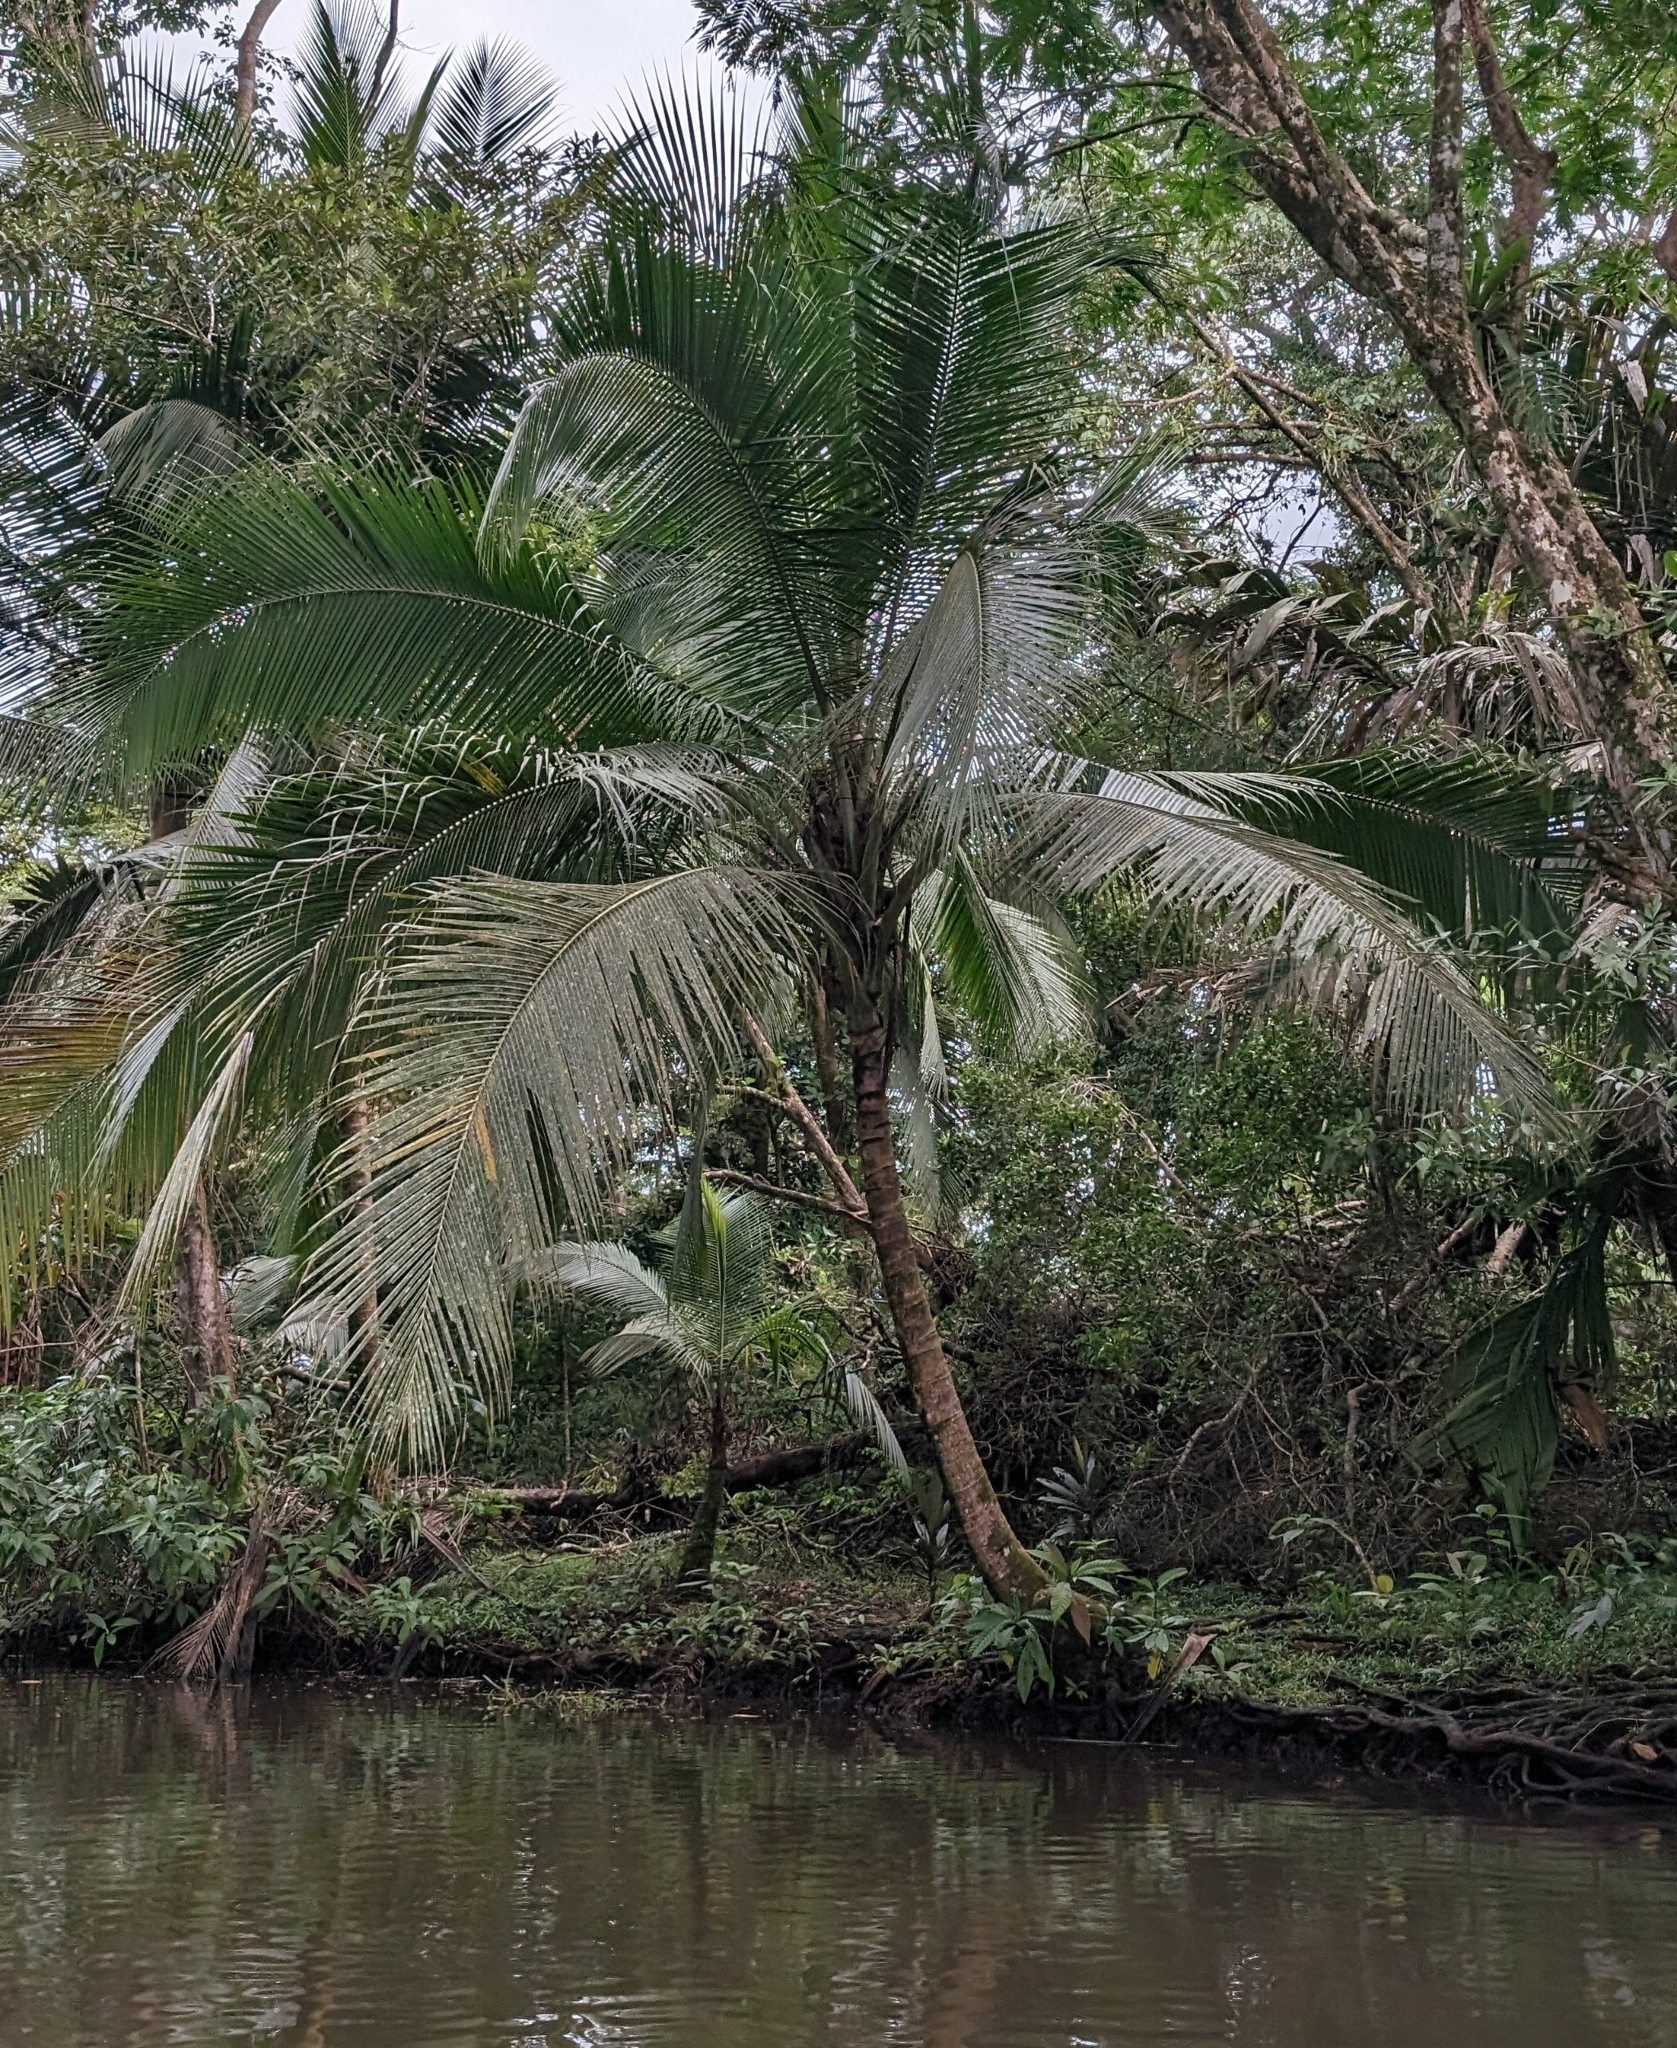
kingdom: Plantae
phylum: Tracheophyta
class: Liliopsida
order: Arecales
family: Arecaceae
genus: Cocos
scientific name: Cocos nucifera
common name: Coconut palm
